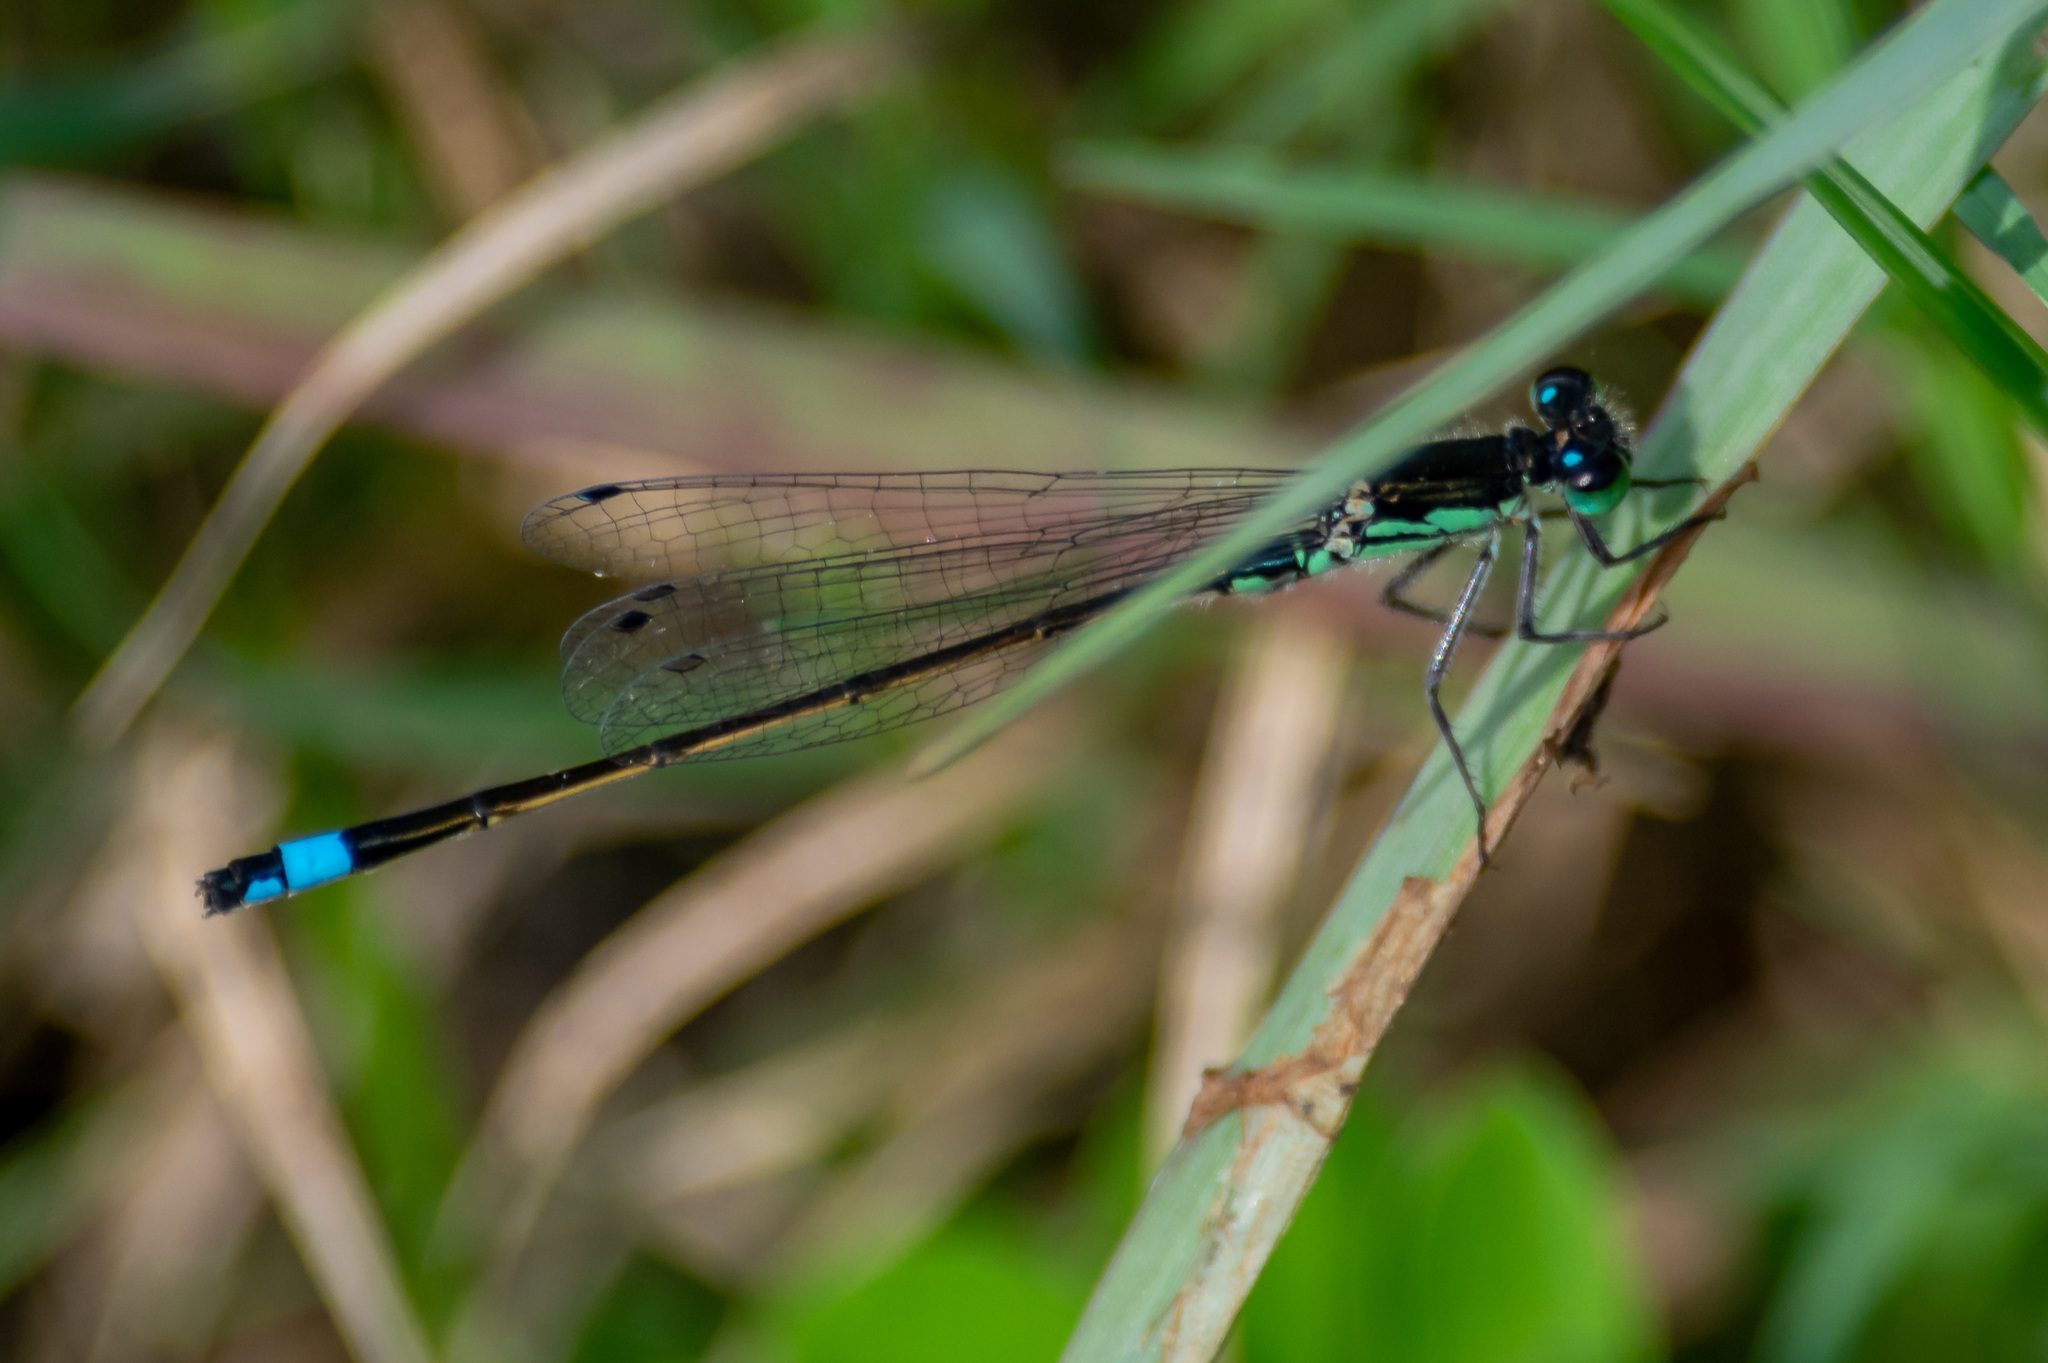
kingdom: Animalia
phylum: Arthropoda
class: Insecta
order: Odonata
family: Coenagrionidae
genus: Ischnura
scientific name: Ischnura ramburii
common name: Rambur's forktail
